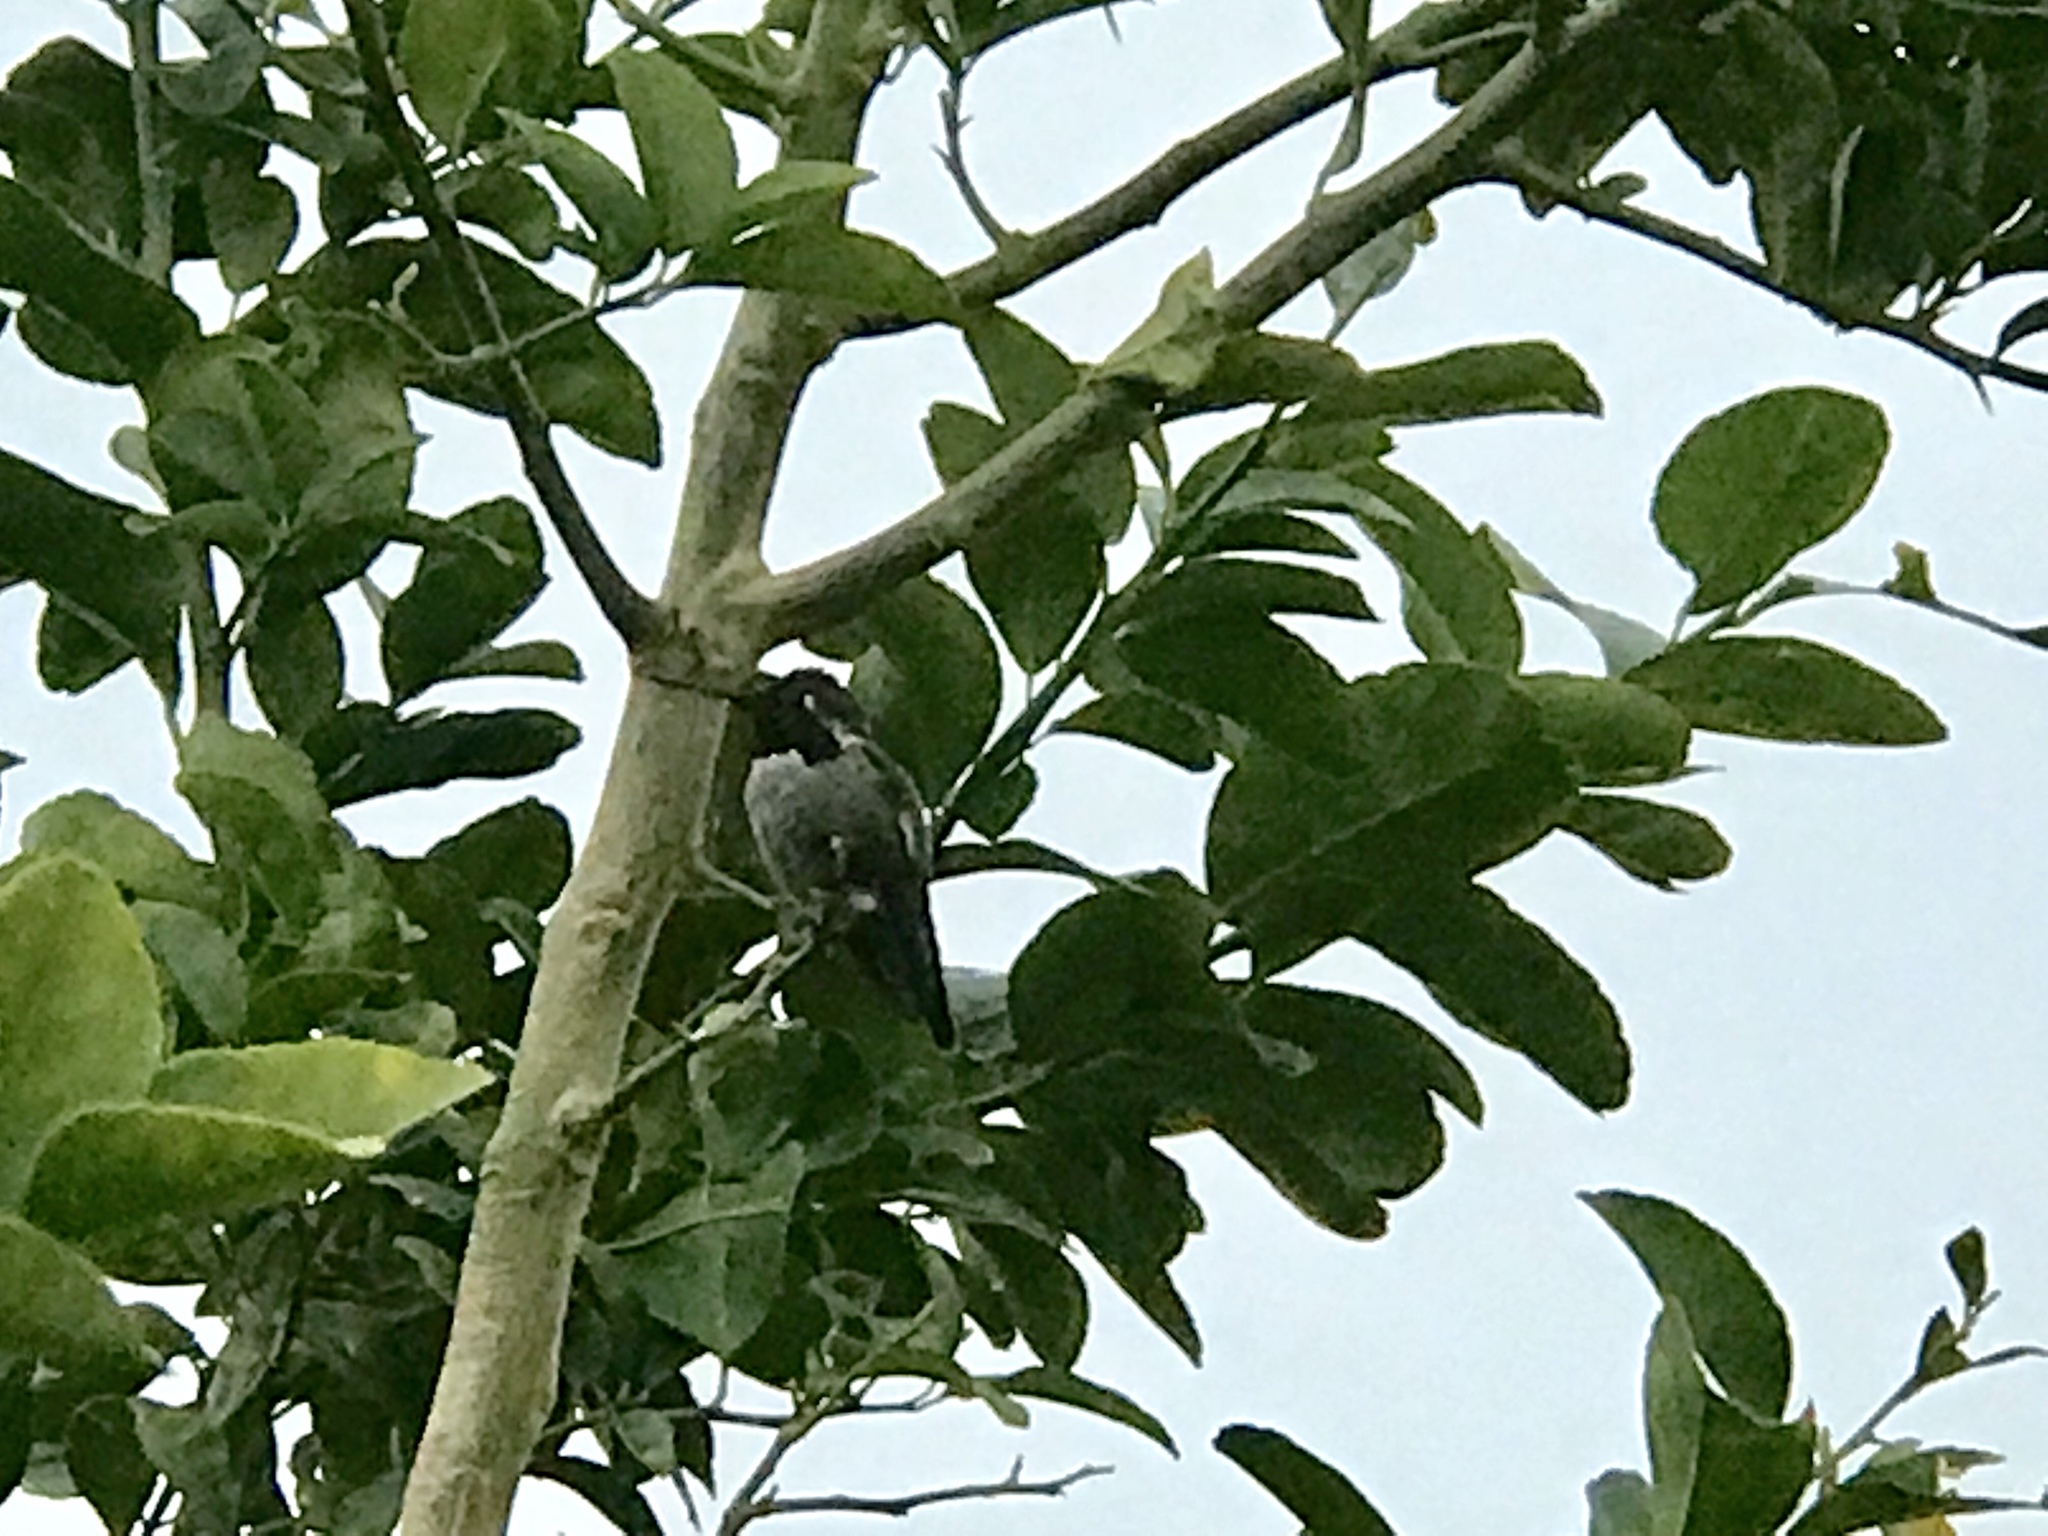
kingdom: Animalia
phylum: Chordata
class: Aves
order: Apodiformes
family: Trochilidae
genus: Calypte
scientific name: Calypte anna
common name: Anna's hummingbird
